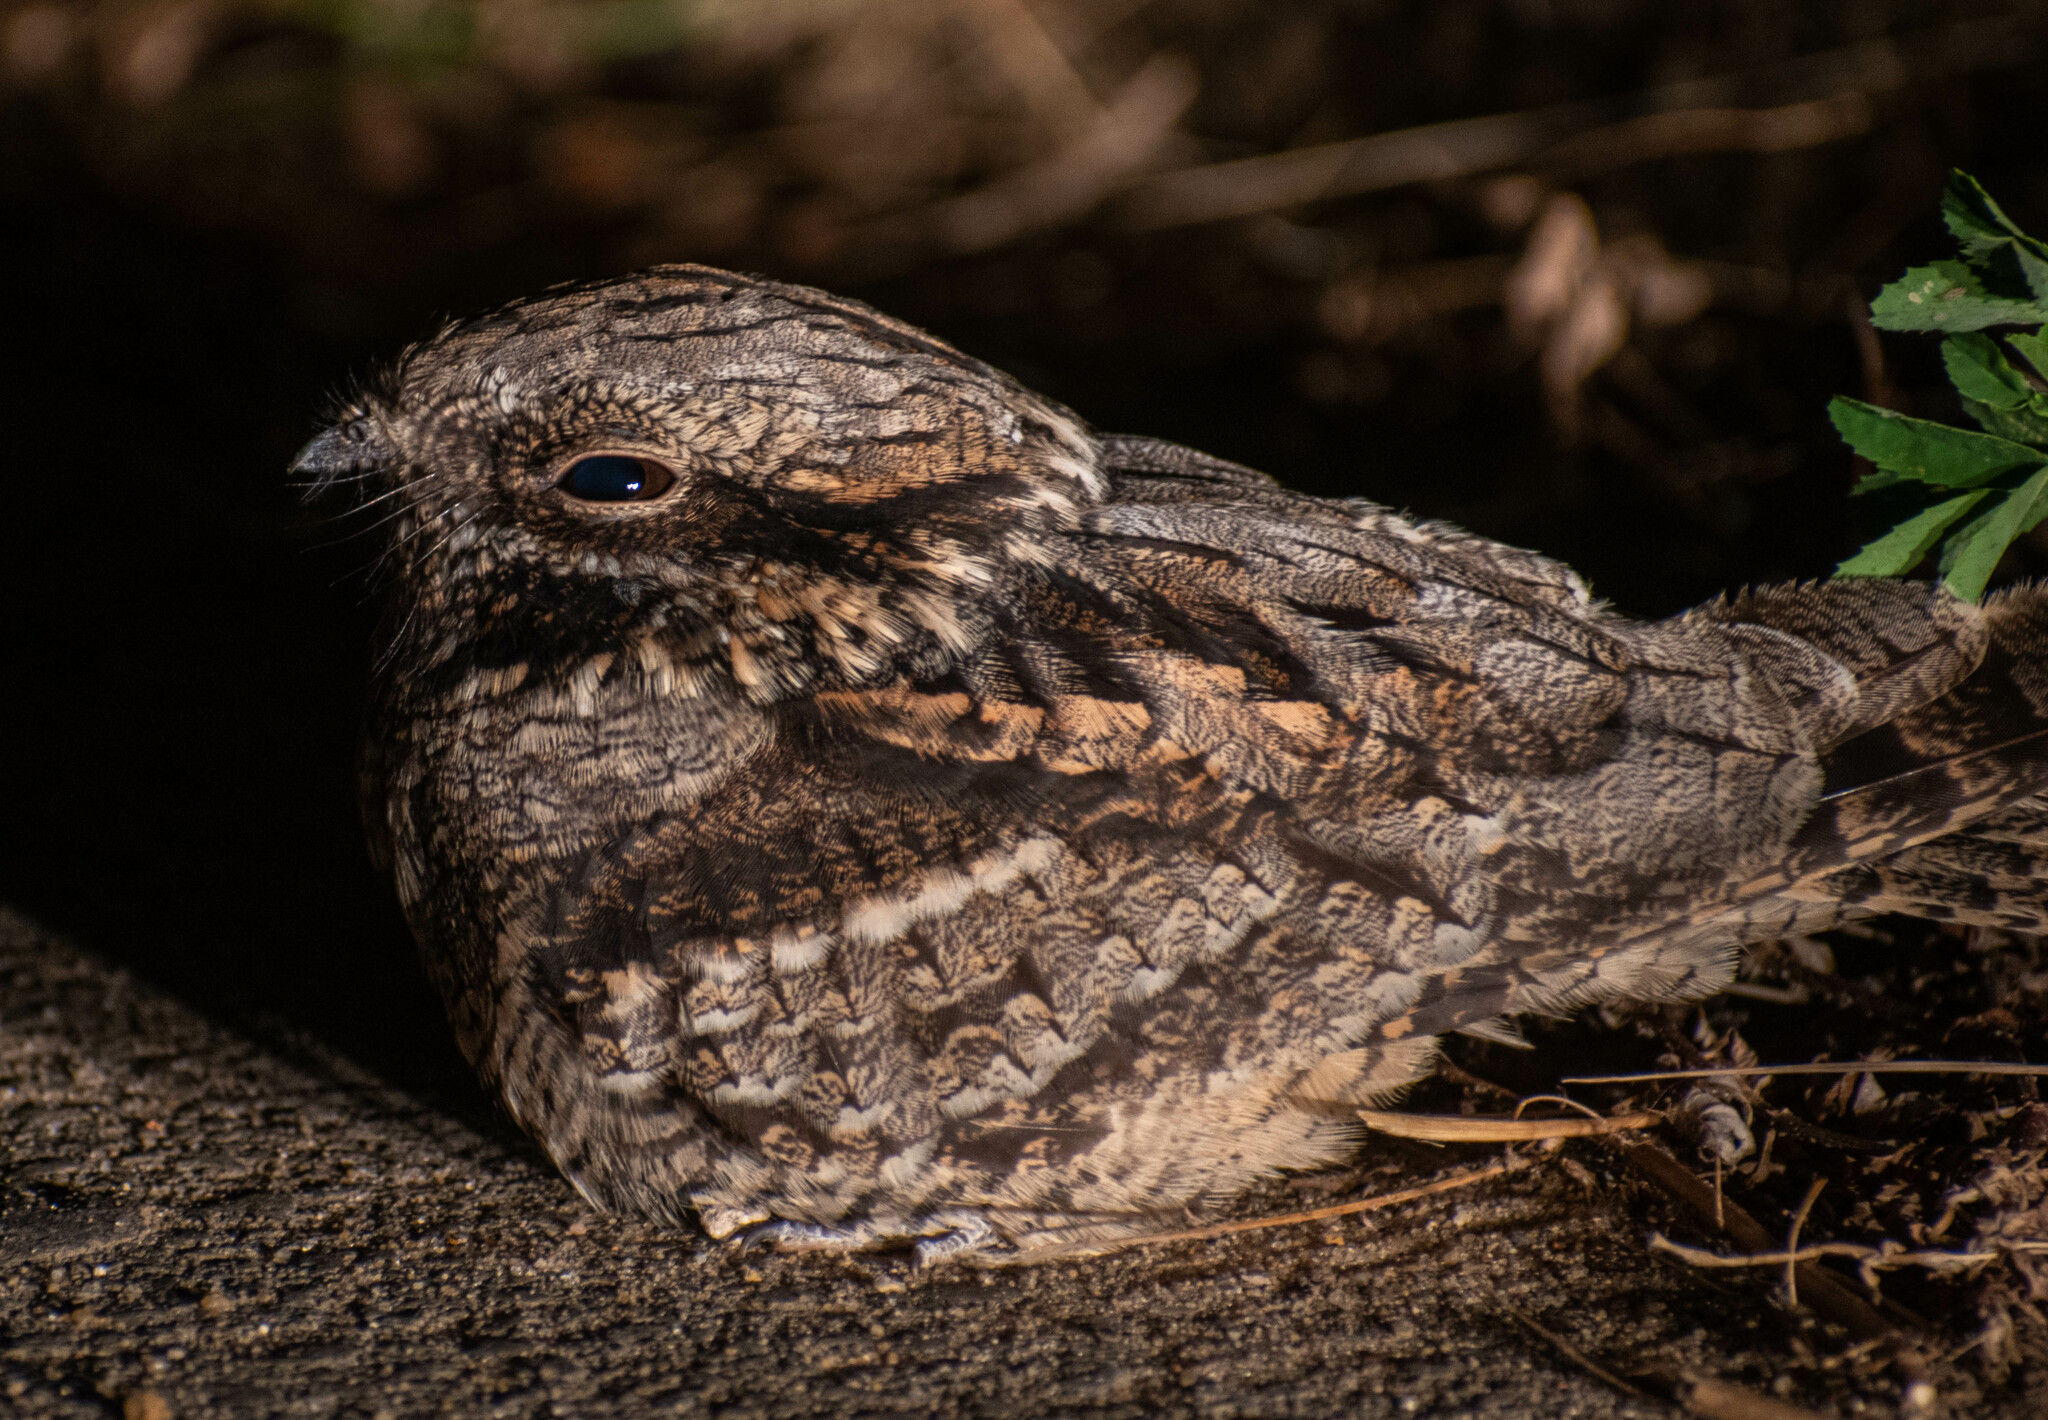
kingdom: Animalia
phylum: Chordata
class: Aves
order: Caprimulgiformes
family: Caprimulgidae
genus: Caprimulgus
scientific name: Caprimulgus europaeus
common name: European nightjar
